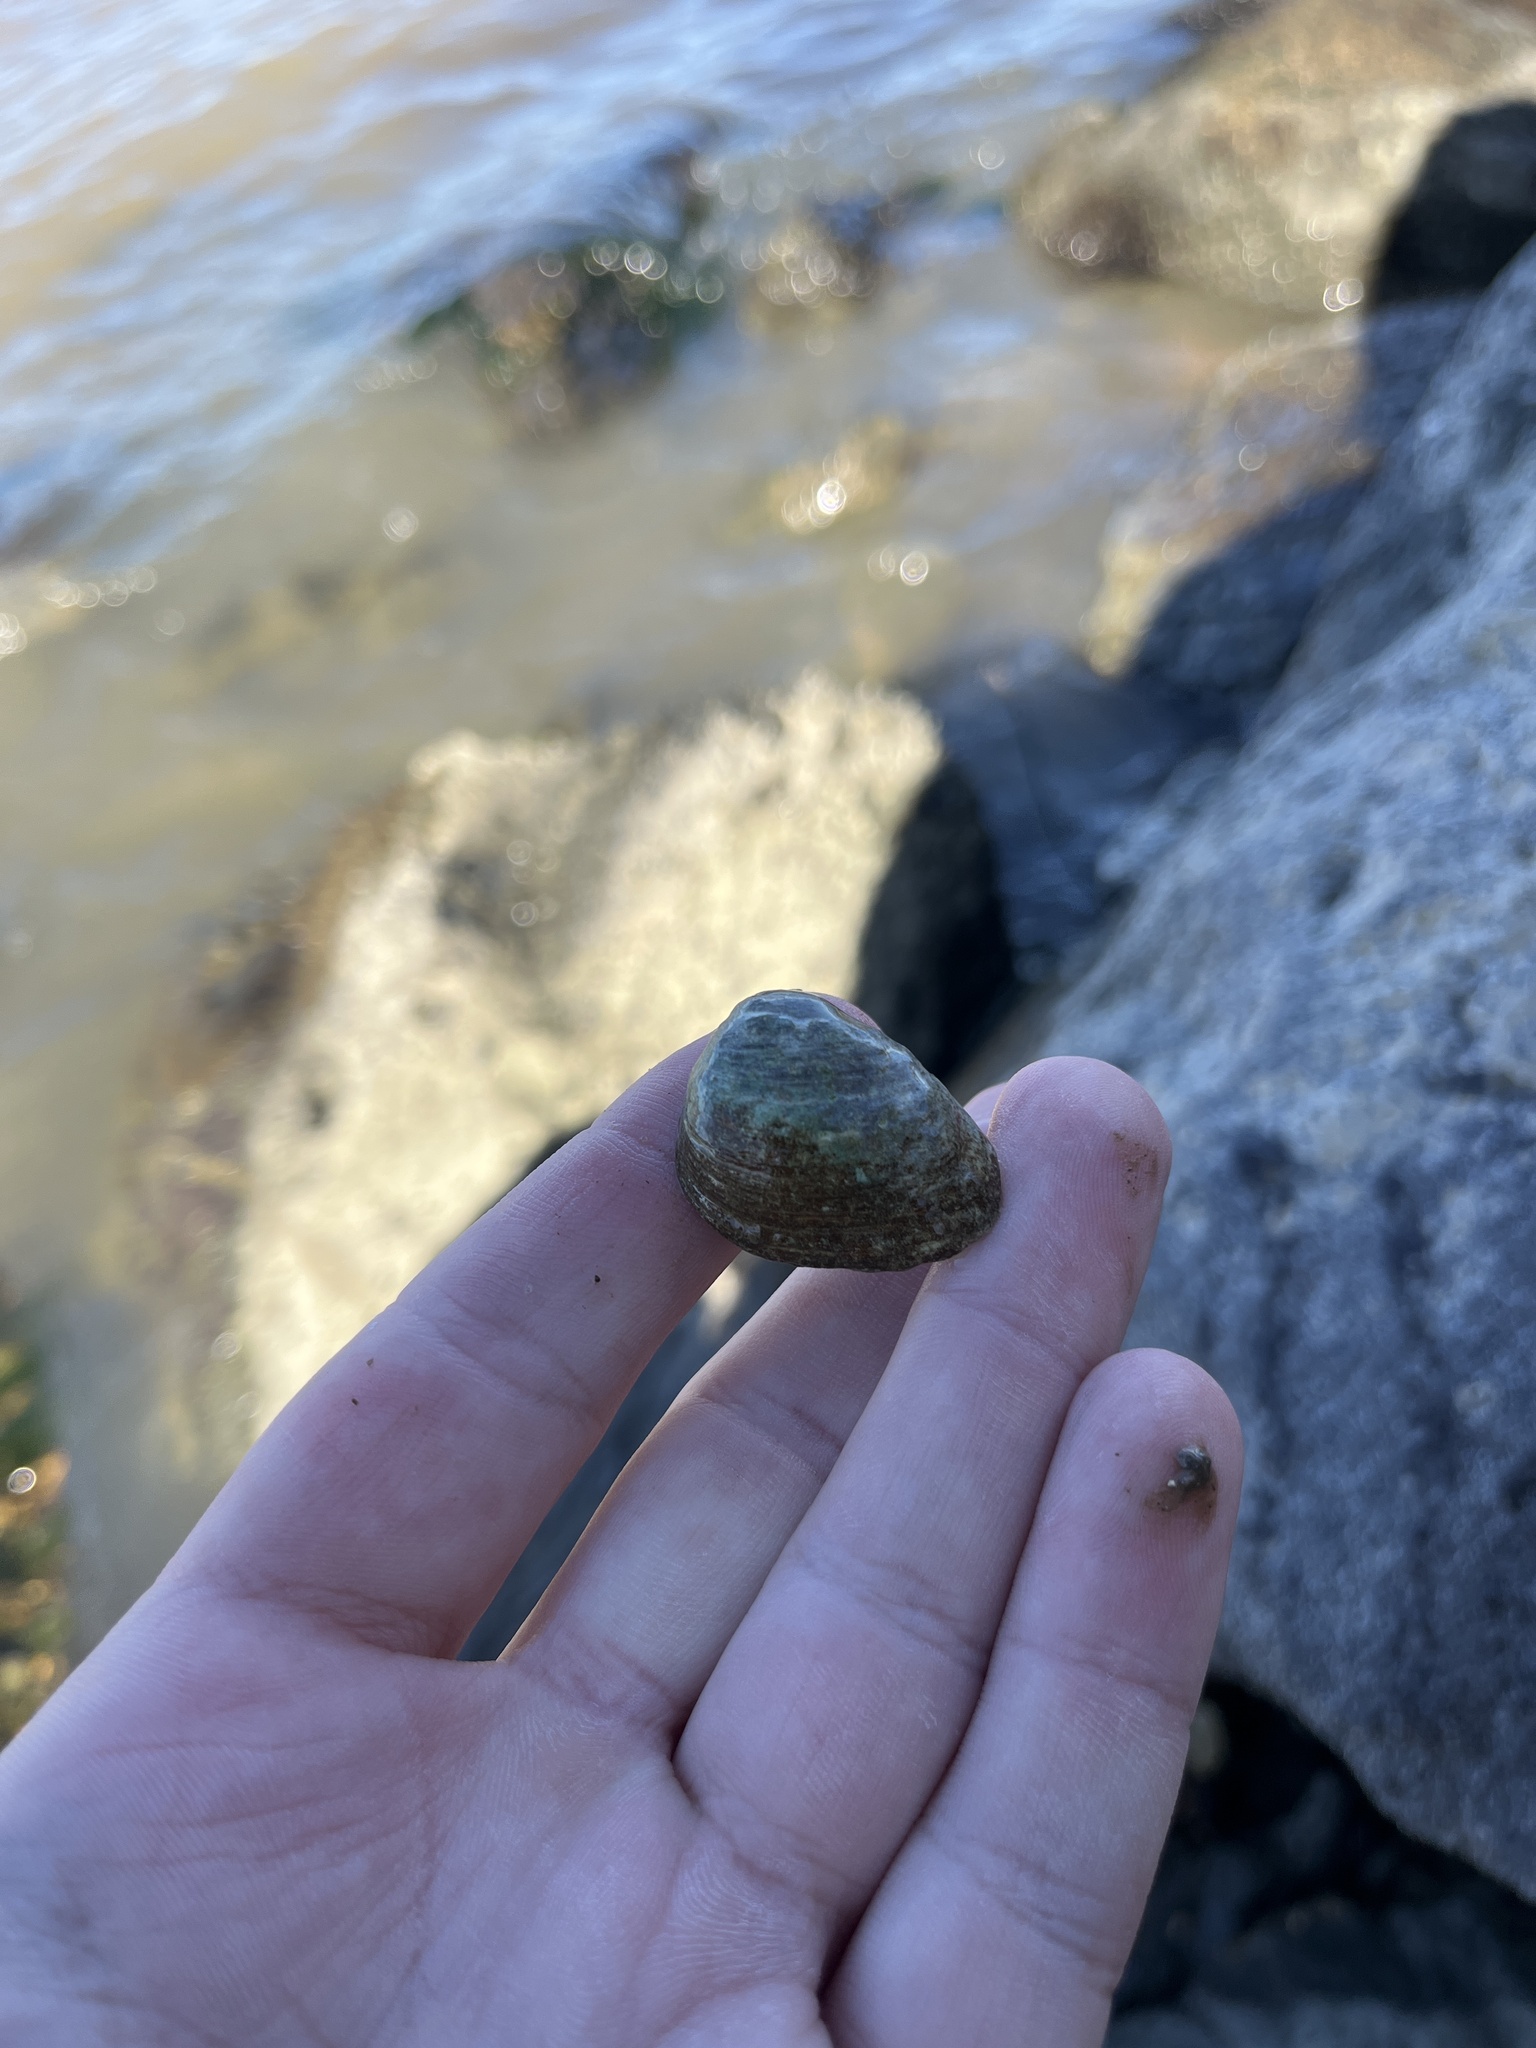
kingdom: Animalia
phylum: Mollusca
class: Bivalvia
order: Venerida
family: Mactridae
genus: Rangia
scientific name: Rangia cuneata
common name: Atlantic rangia
